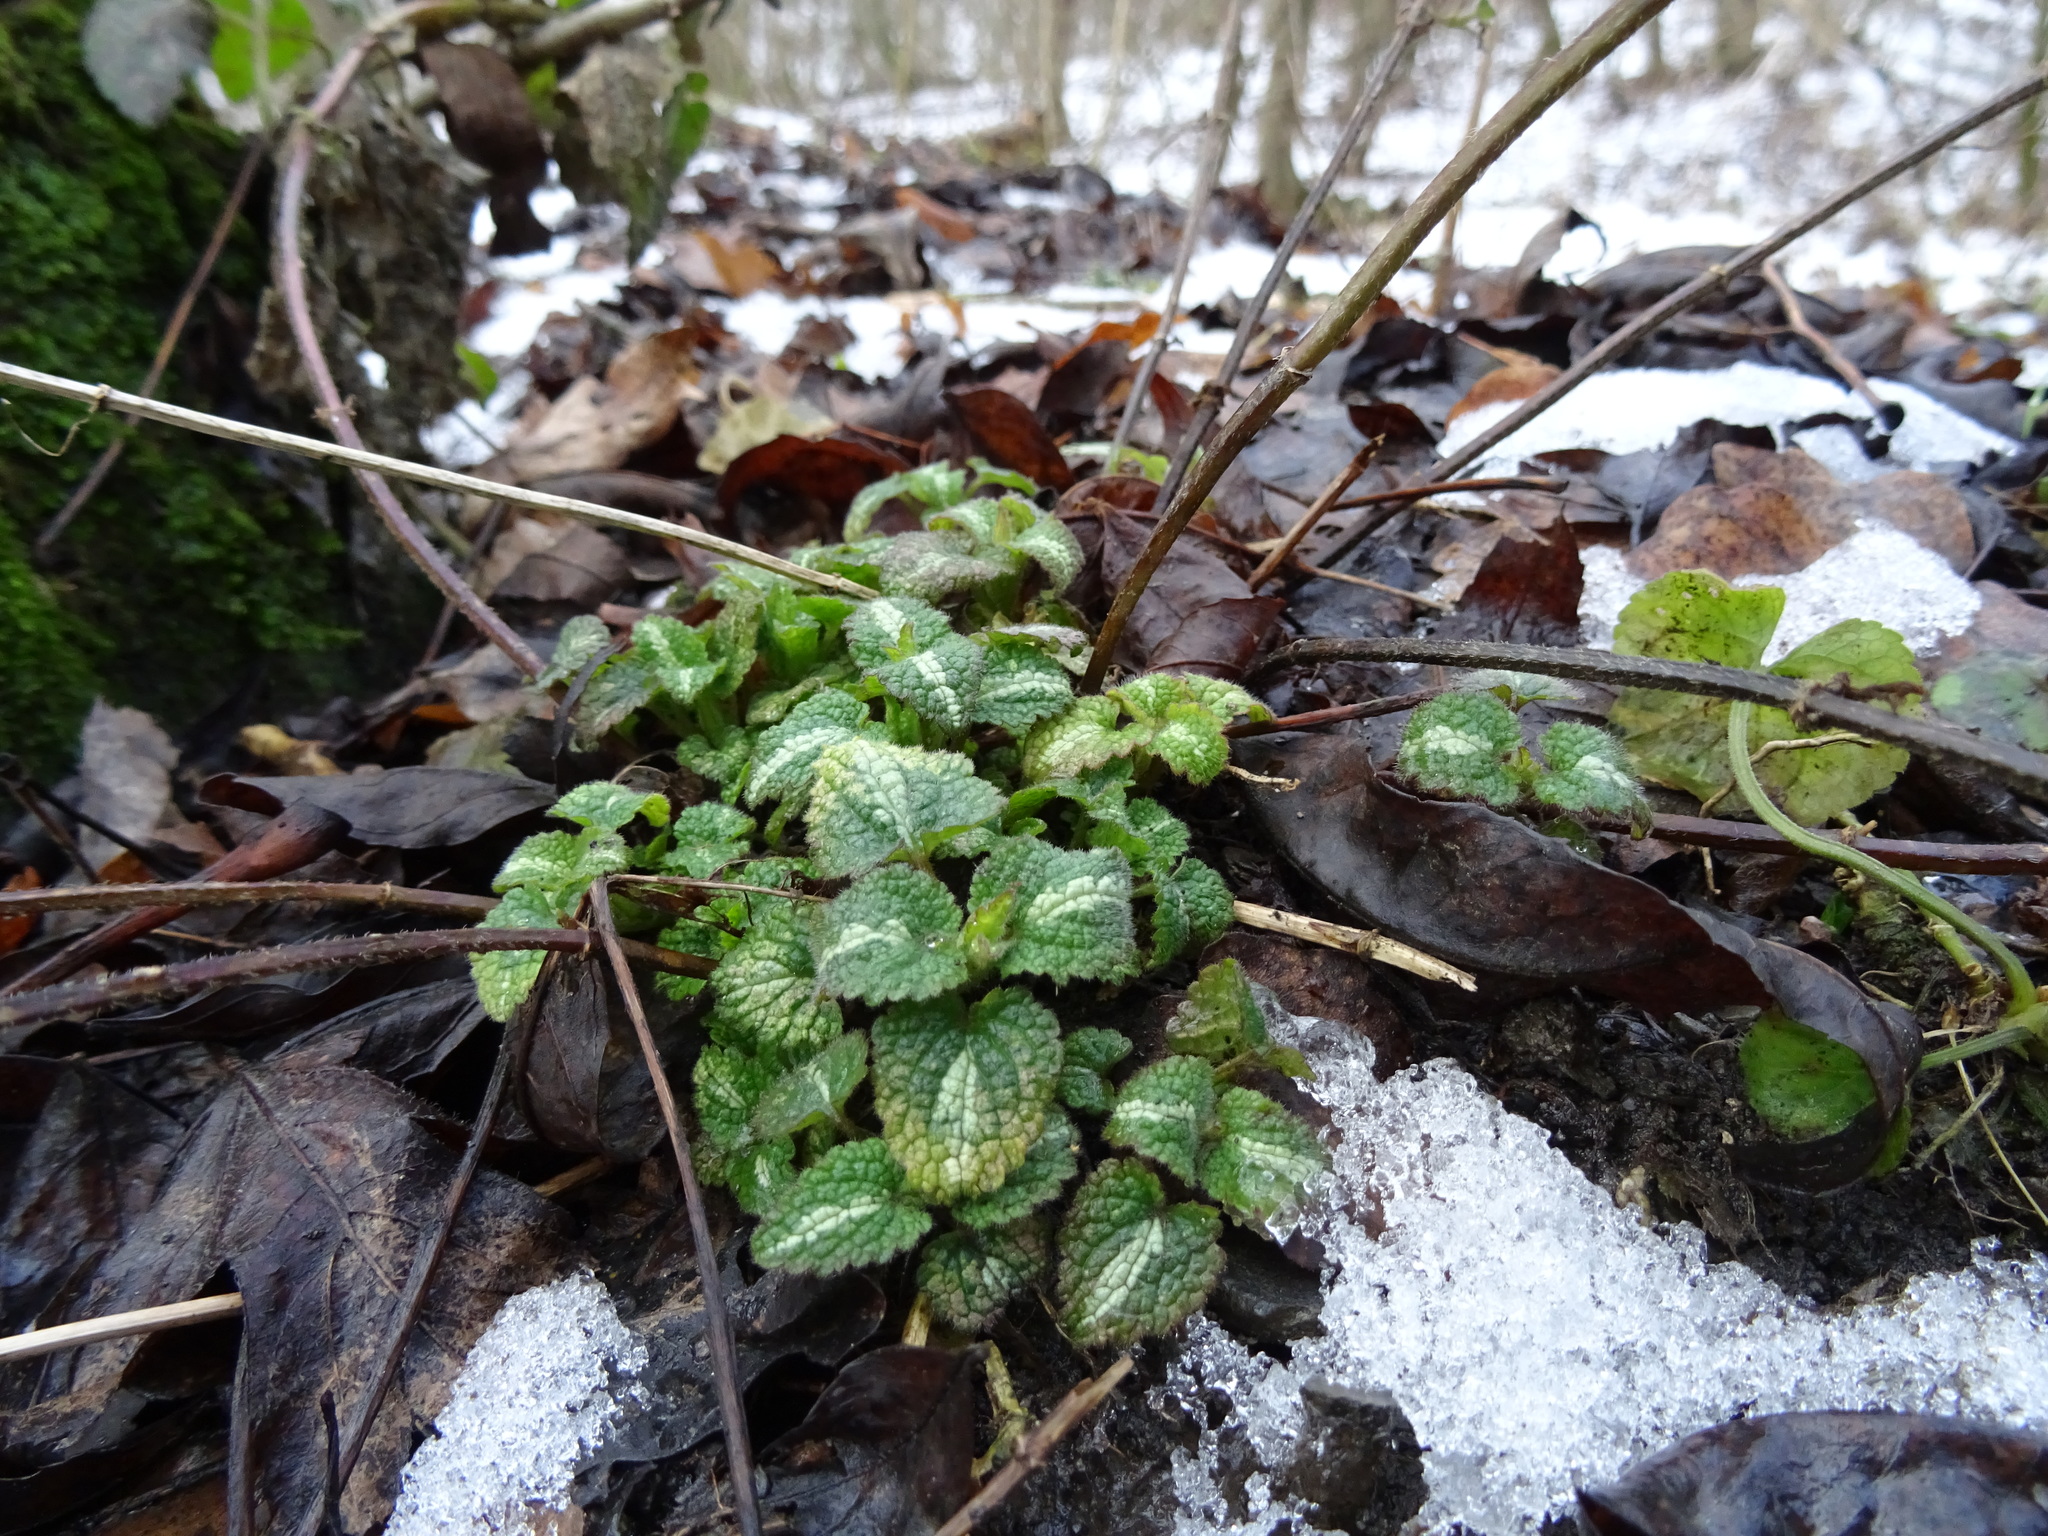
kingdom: Plantae
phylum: Tracheophyta
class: Magnoliopsida
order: Lamiales
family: Lamiaceae
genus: Lamium
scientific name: Lamium maculatum
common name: Spotted dead-nettle
